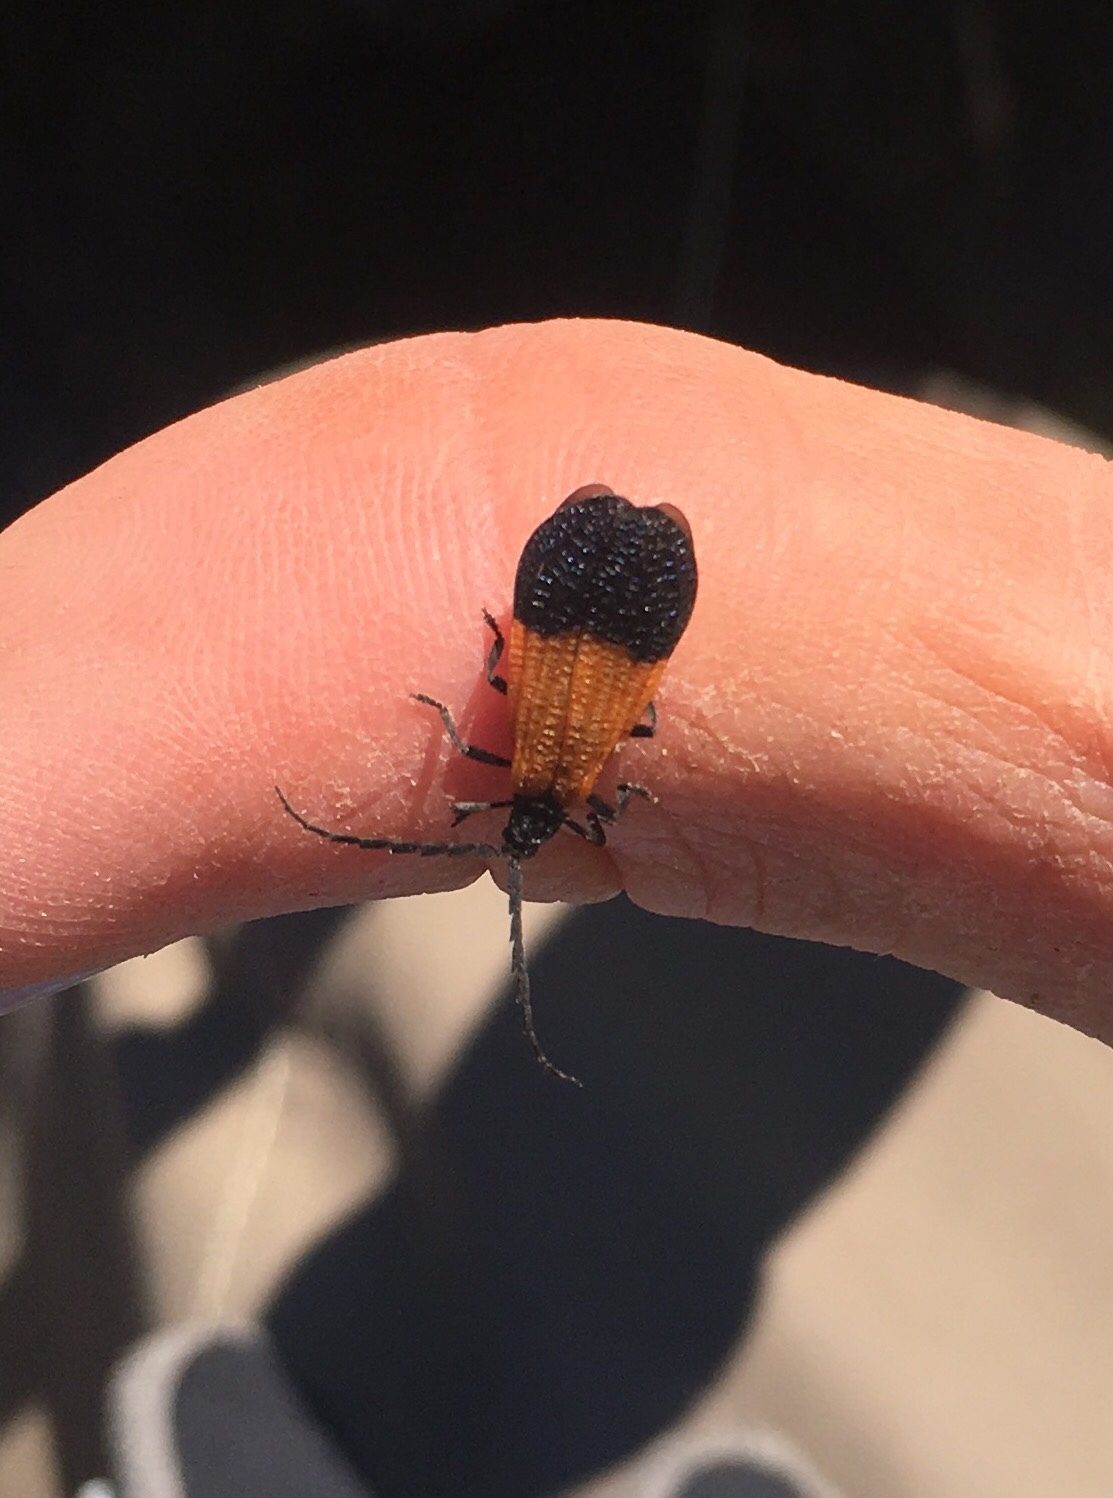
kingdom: Animalia
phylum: Arthropoda
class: Insecta
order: Coleoptera
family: Lycidae
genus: Calopteron
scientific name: Calopteron terminale
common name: End band net-winged beetle
